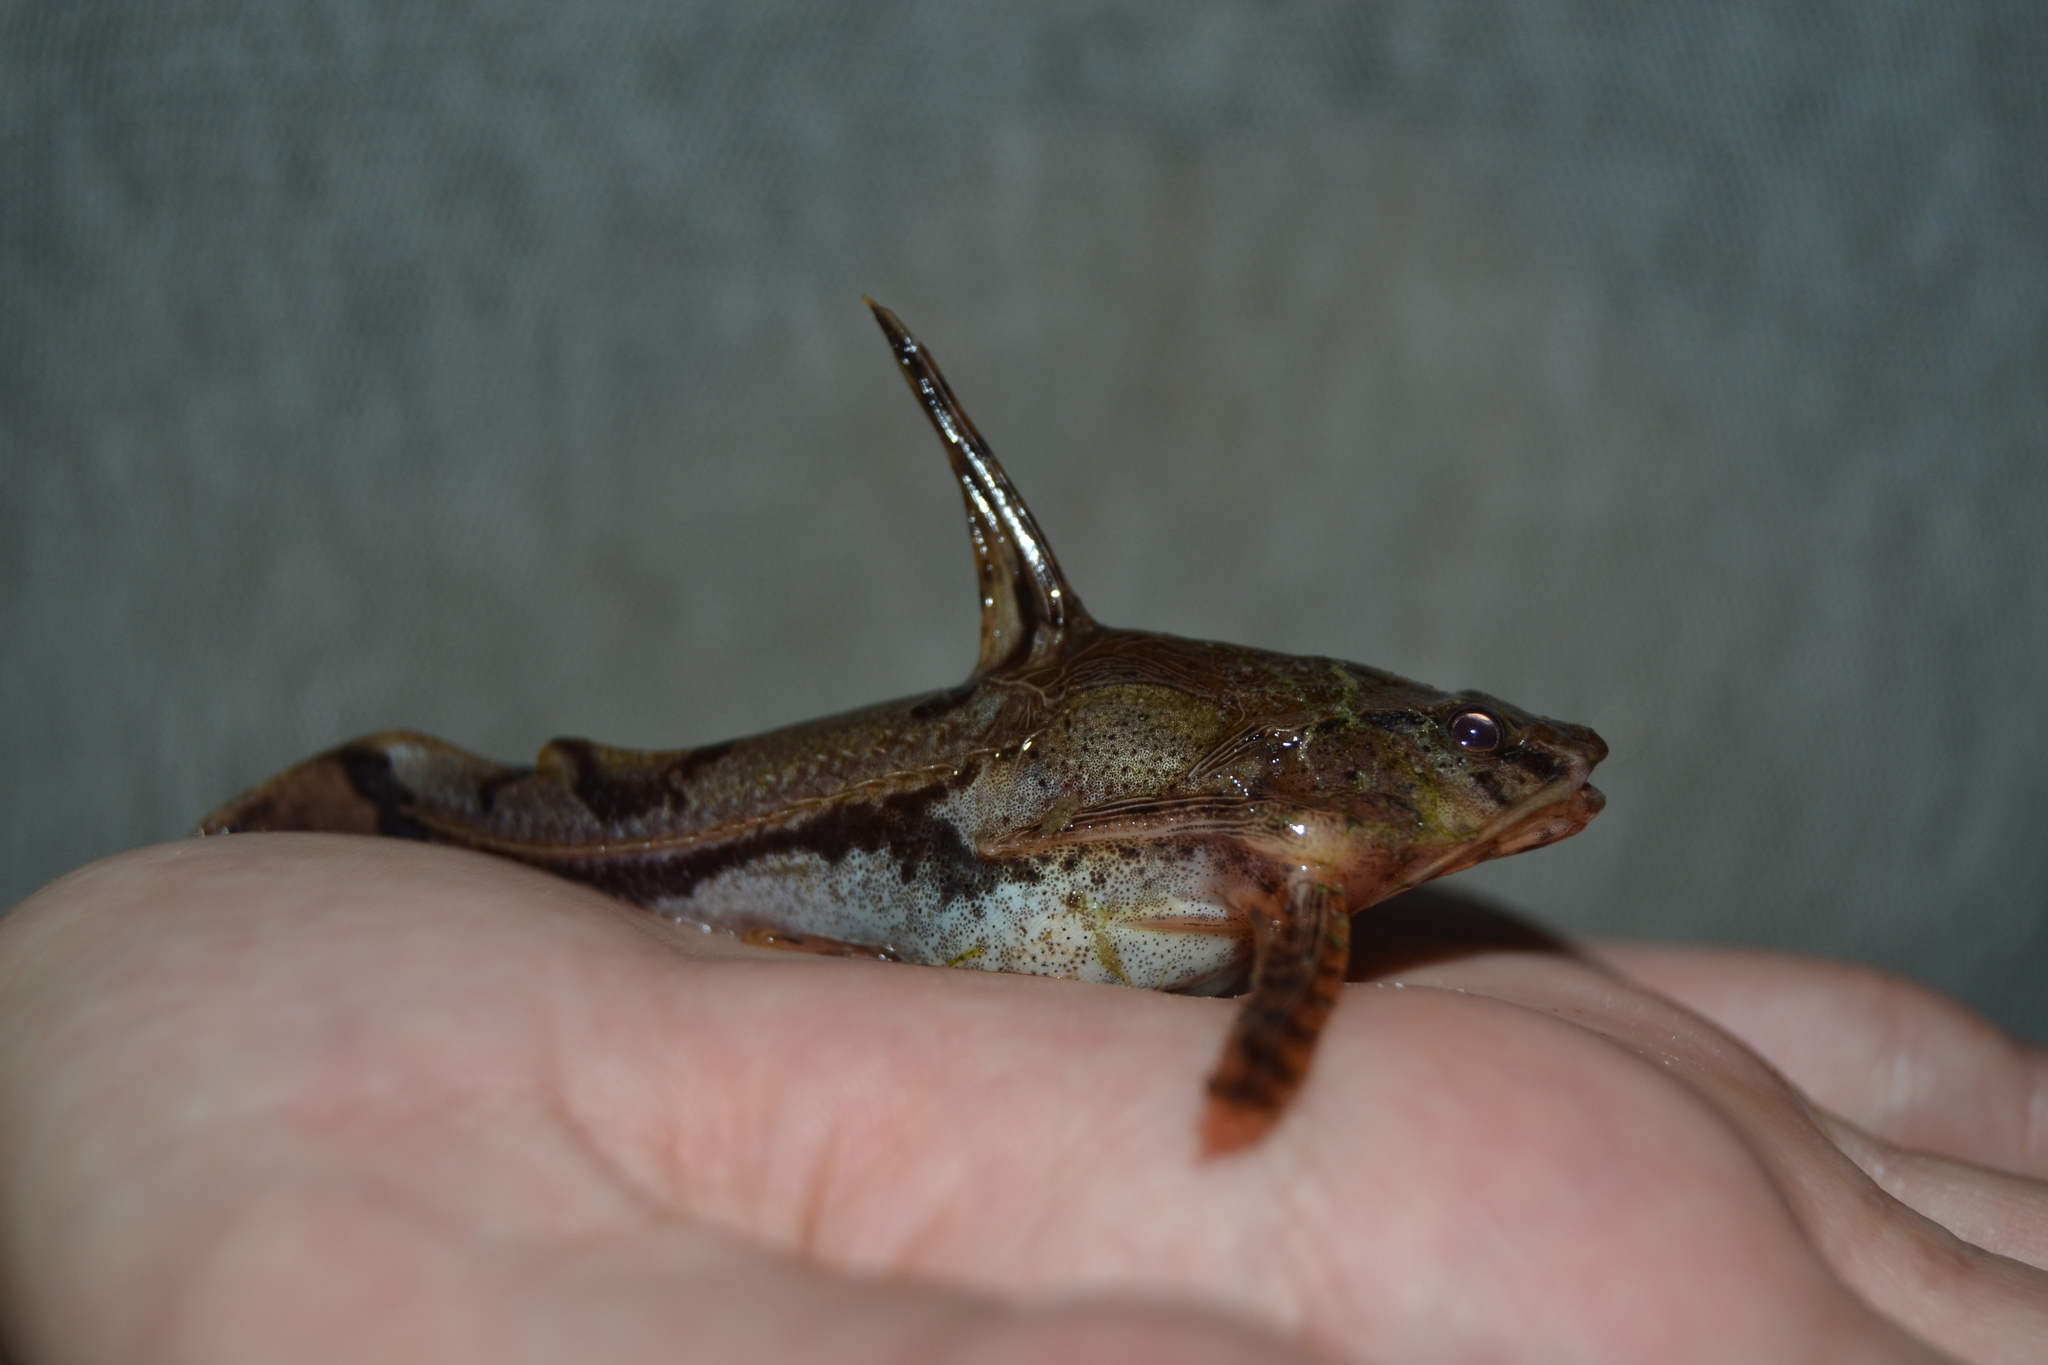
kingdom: Animalia
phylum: Chordata
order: Siluriformes
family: Doradidae
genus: Amblydoras
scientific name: Amblydoras nauticus
